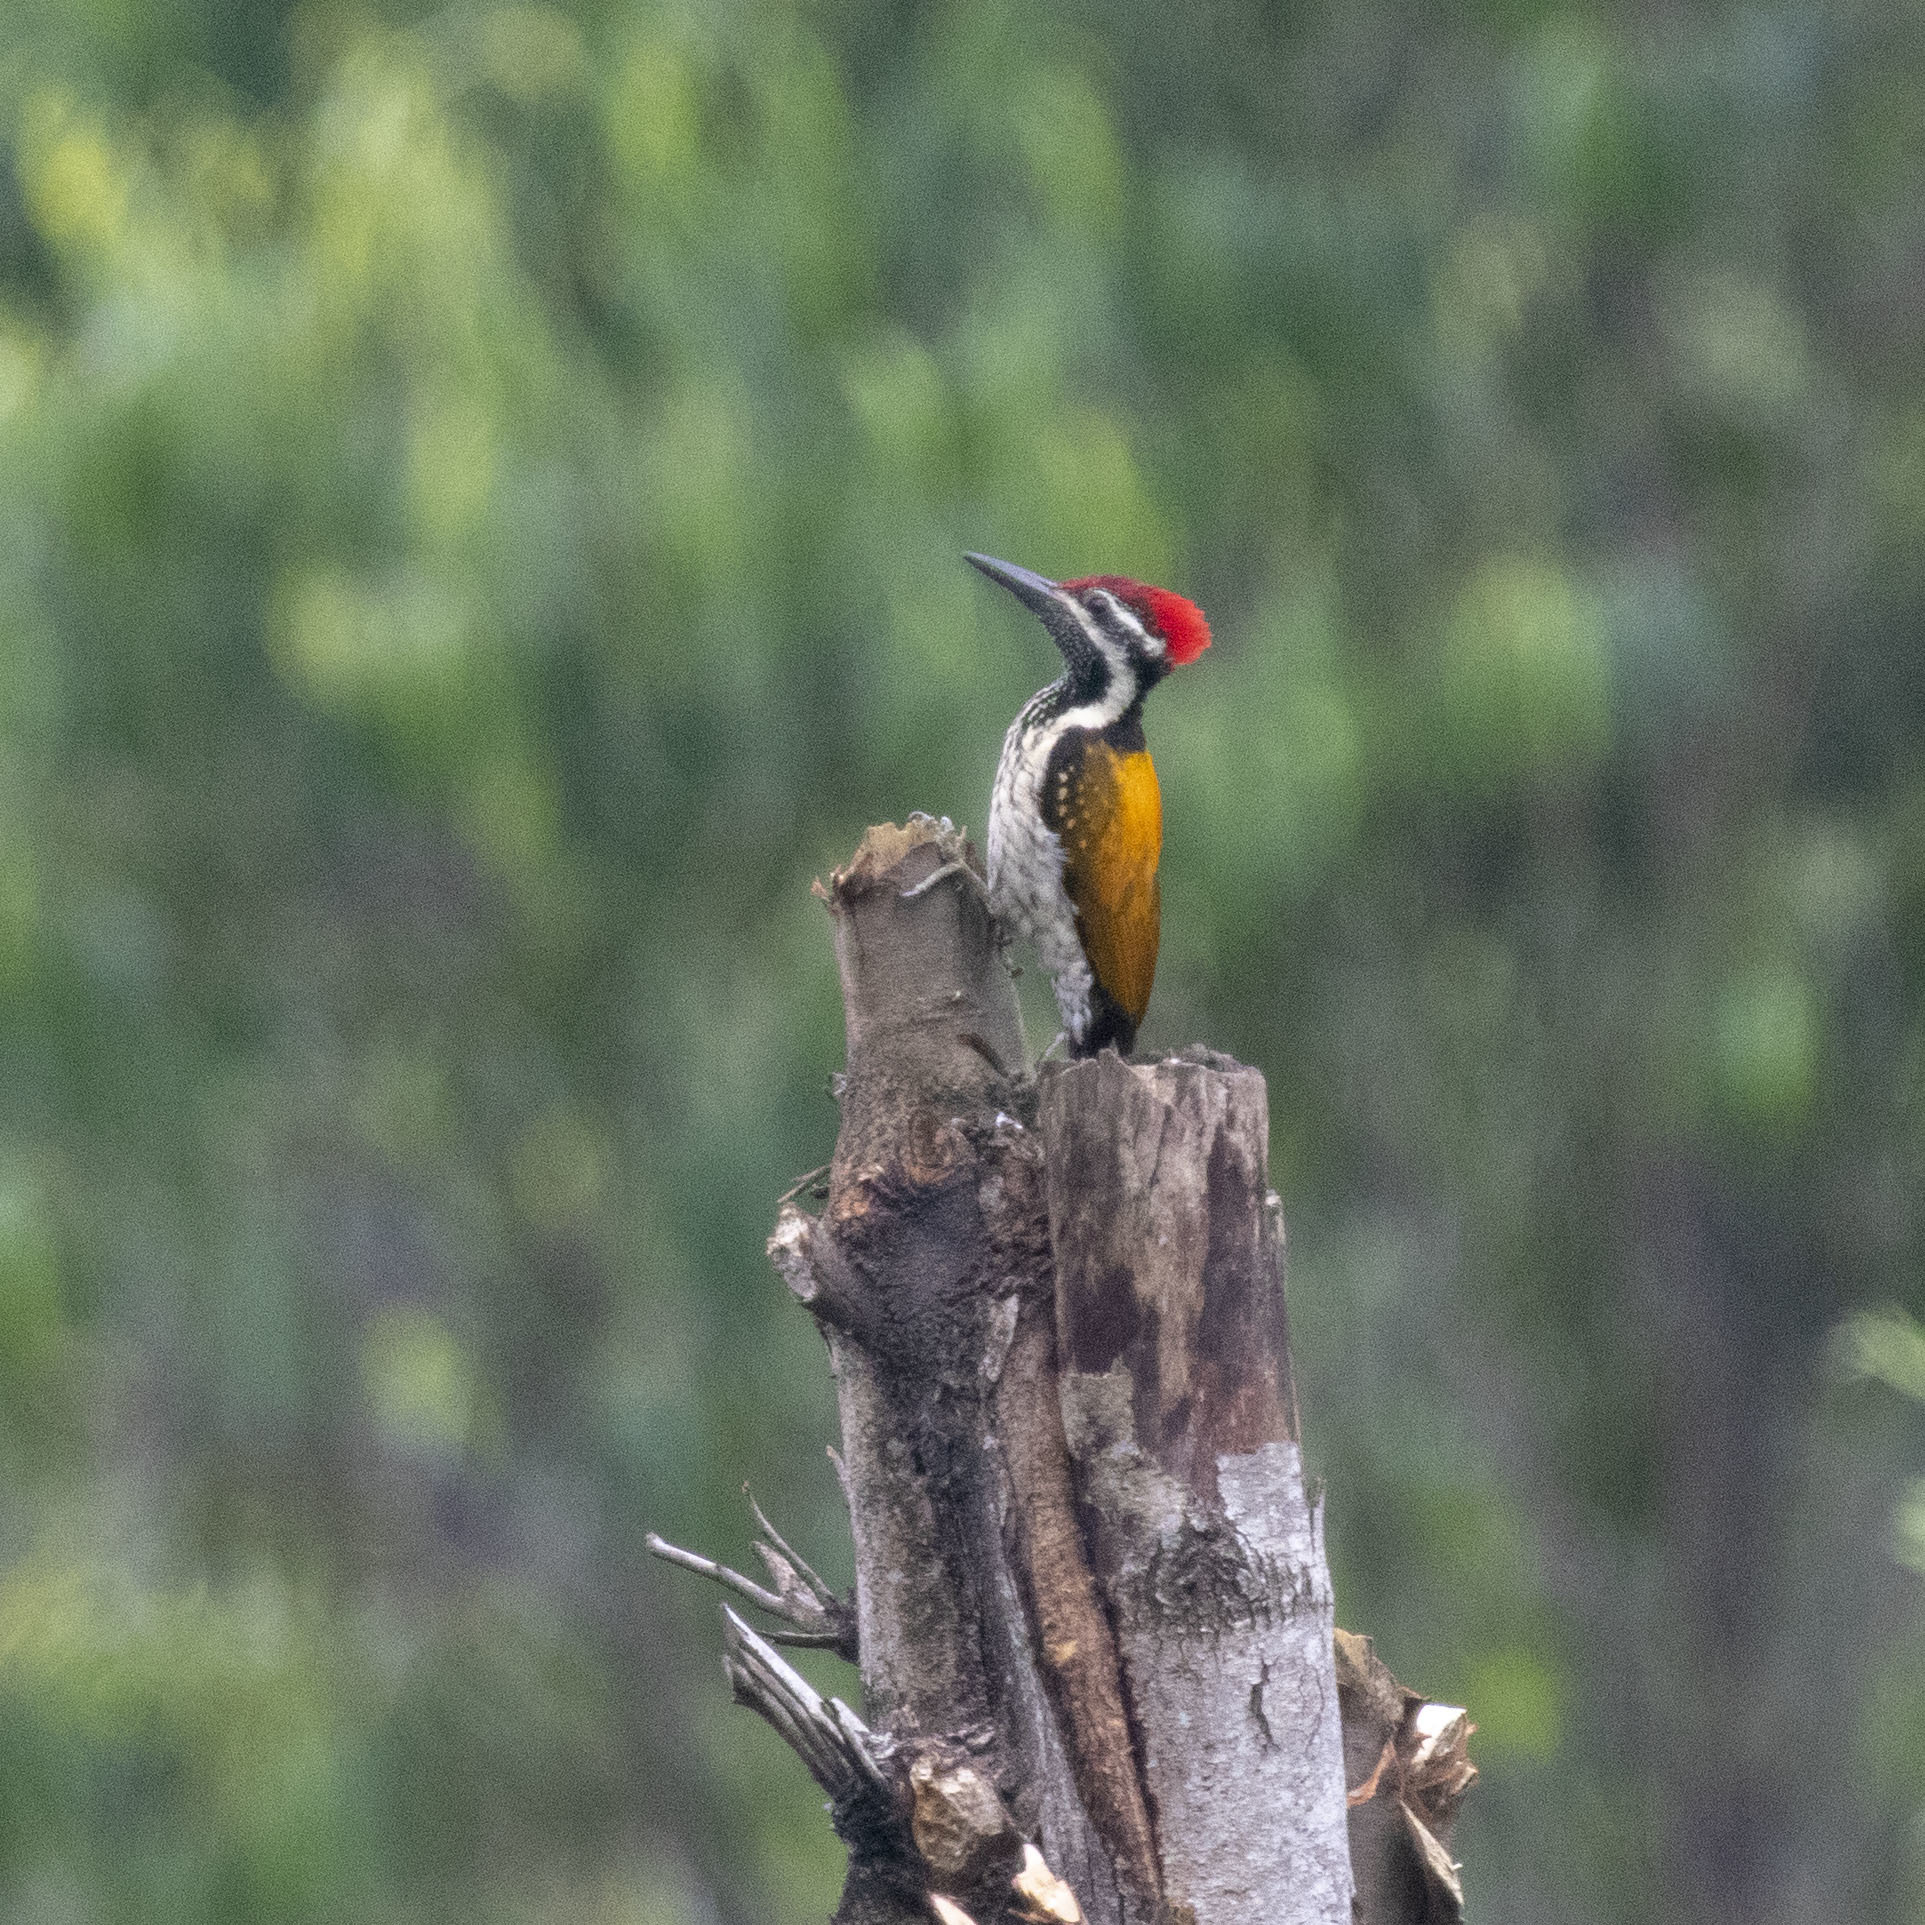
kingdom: Animalia
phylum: Chordata
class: Aves
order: Piciformes
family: Picidae
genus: Dinopium
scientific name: Dinopium benghalense
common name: Black-rumped flameback
